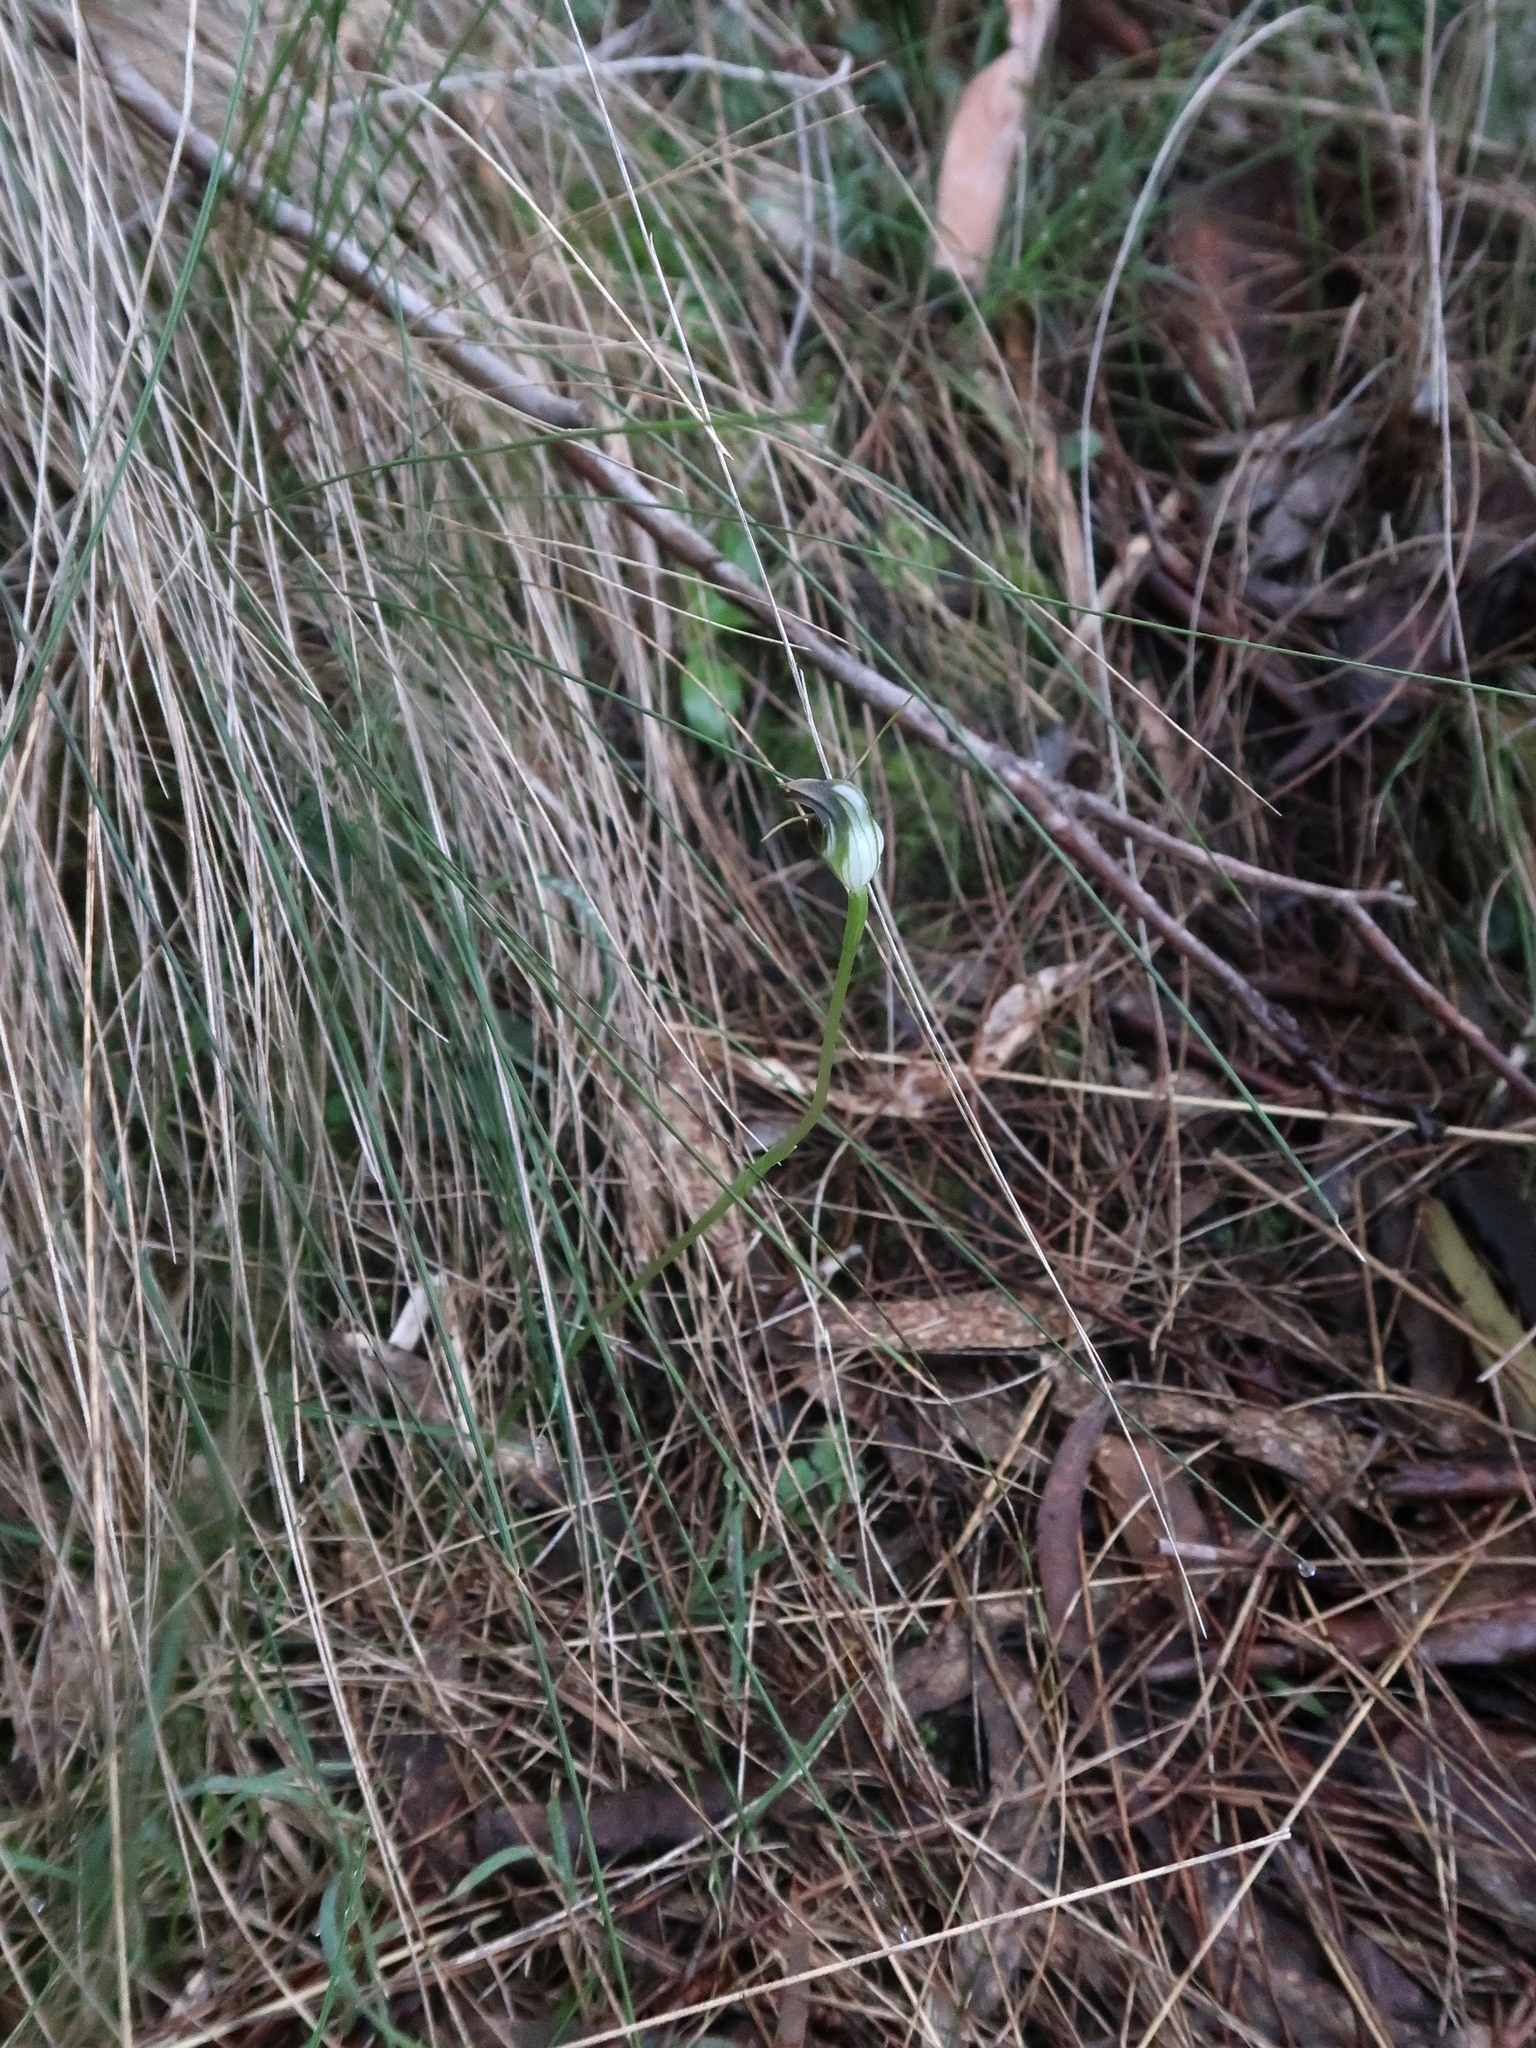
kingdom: Plantae
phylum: Tracheophyta
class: Liliopsida
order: Asparagales
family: Orchidaceae
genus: Pterostylis
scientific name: Pterostylis pedunculata
